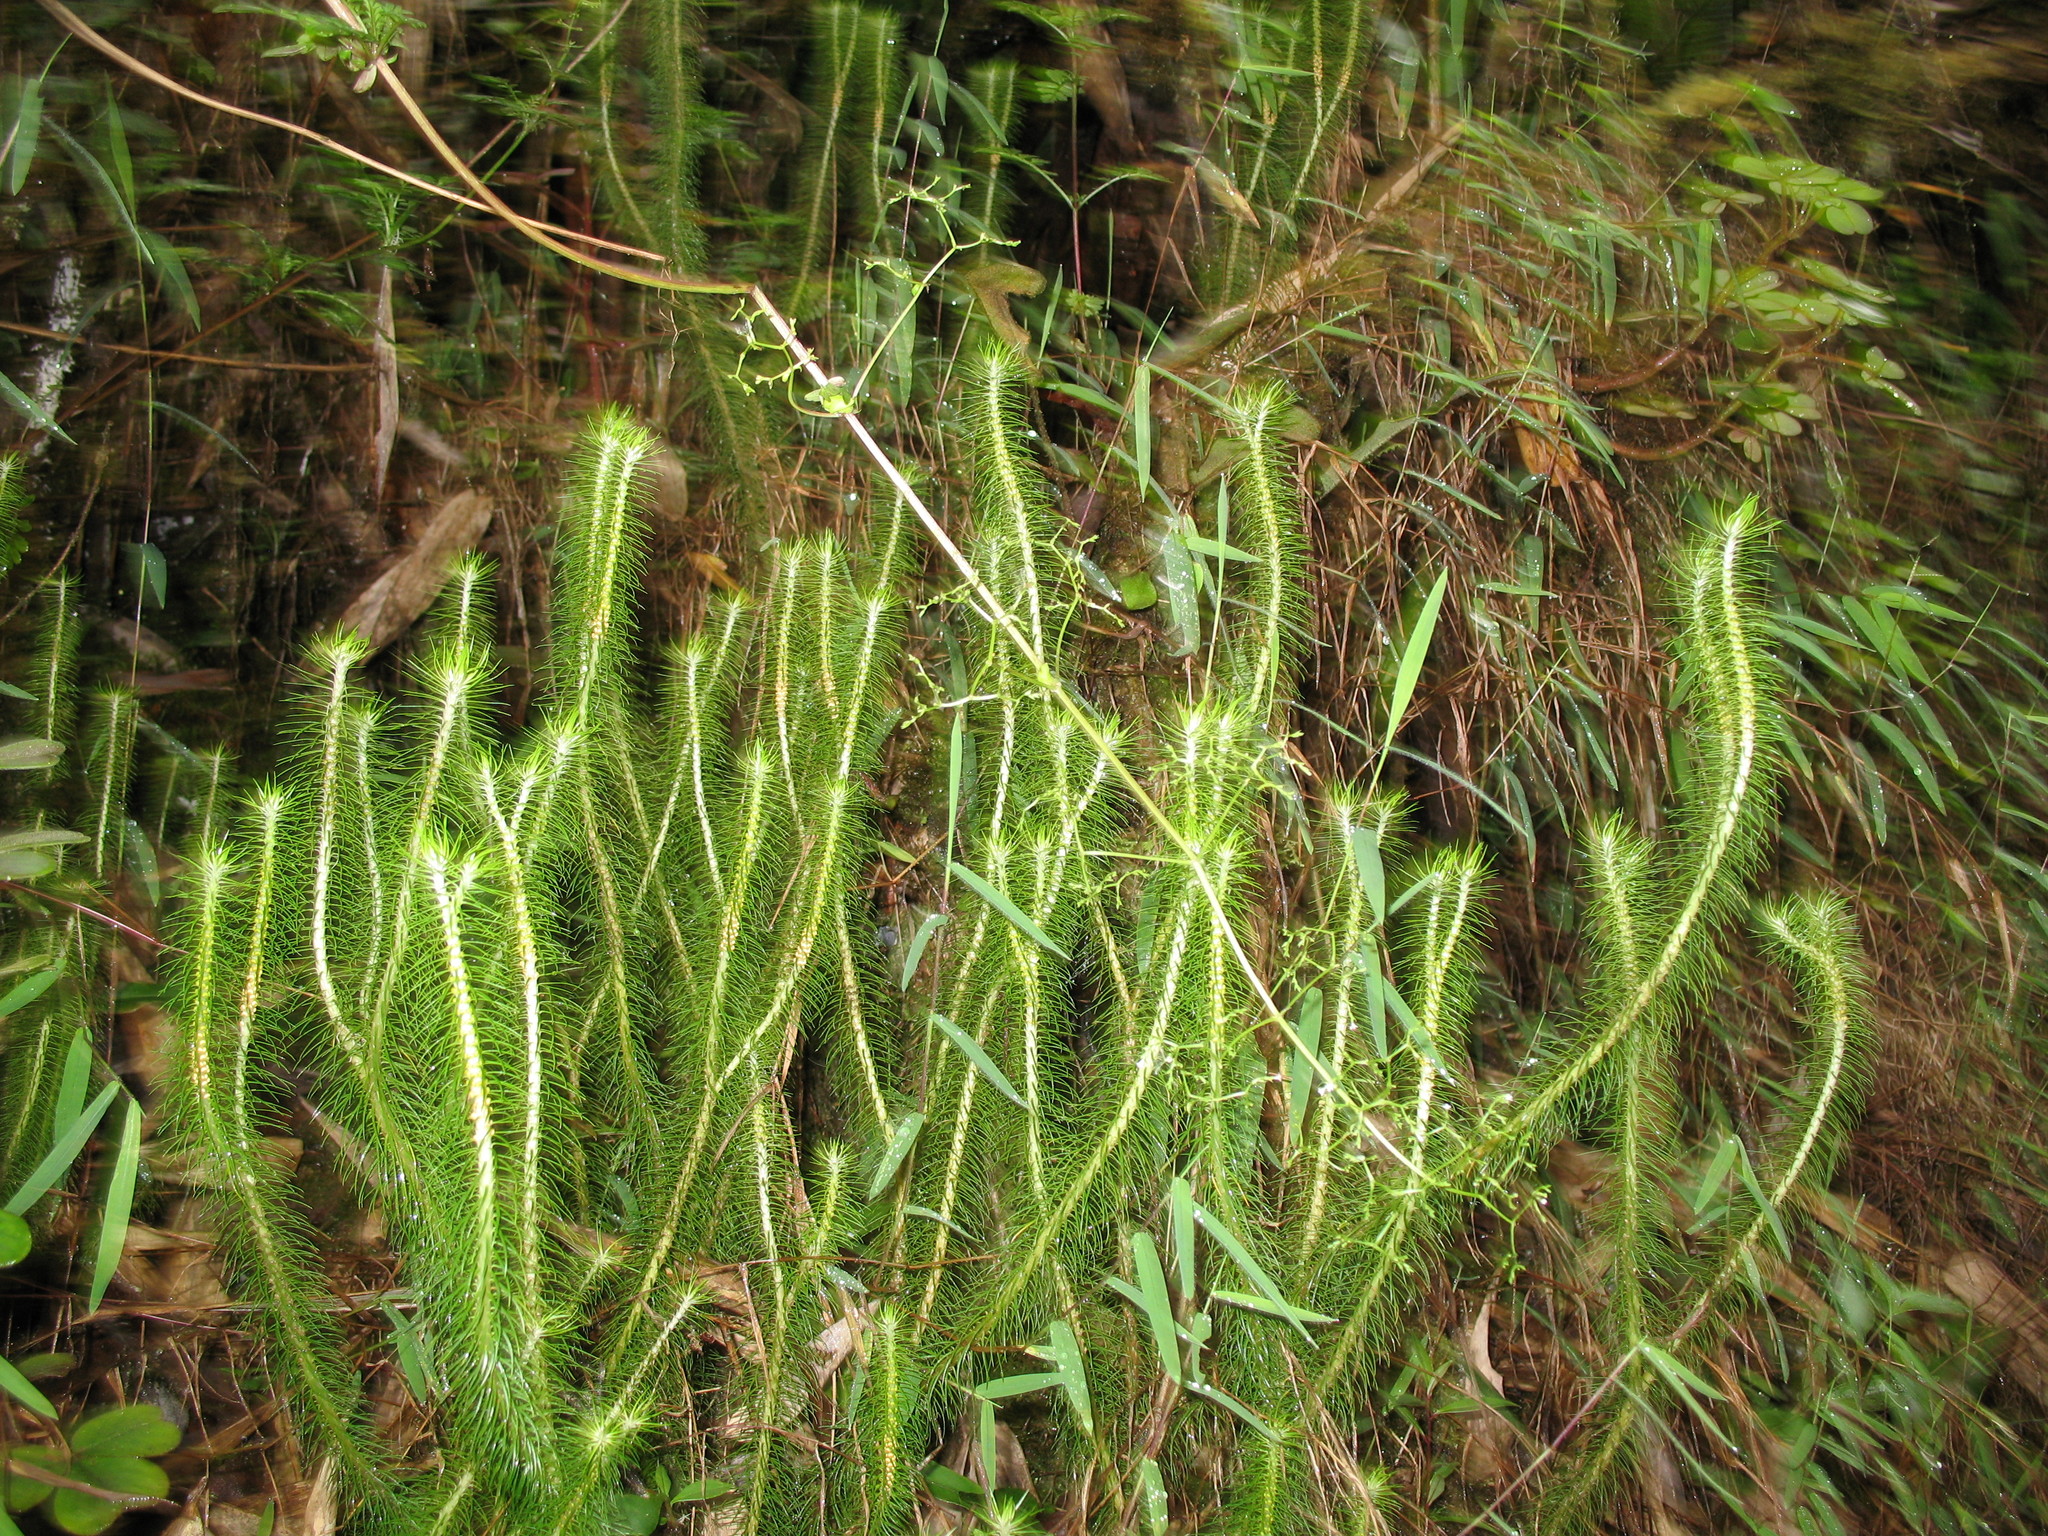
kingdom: Plantae
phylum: Tracheophyta
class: Lycopodiopsida
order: Lycopodiales
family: Lycopodiaceae
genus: Phlegmariurus
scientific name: Phlegmariurus hippurideus
